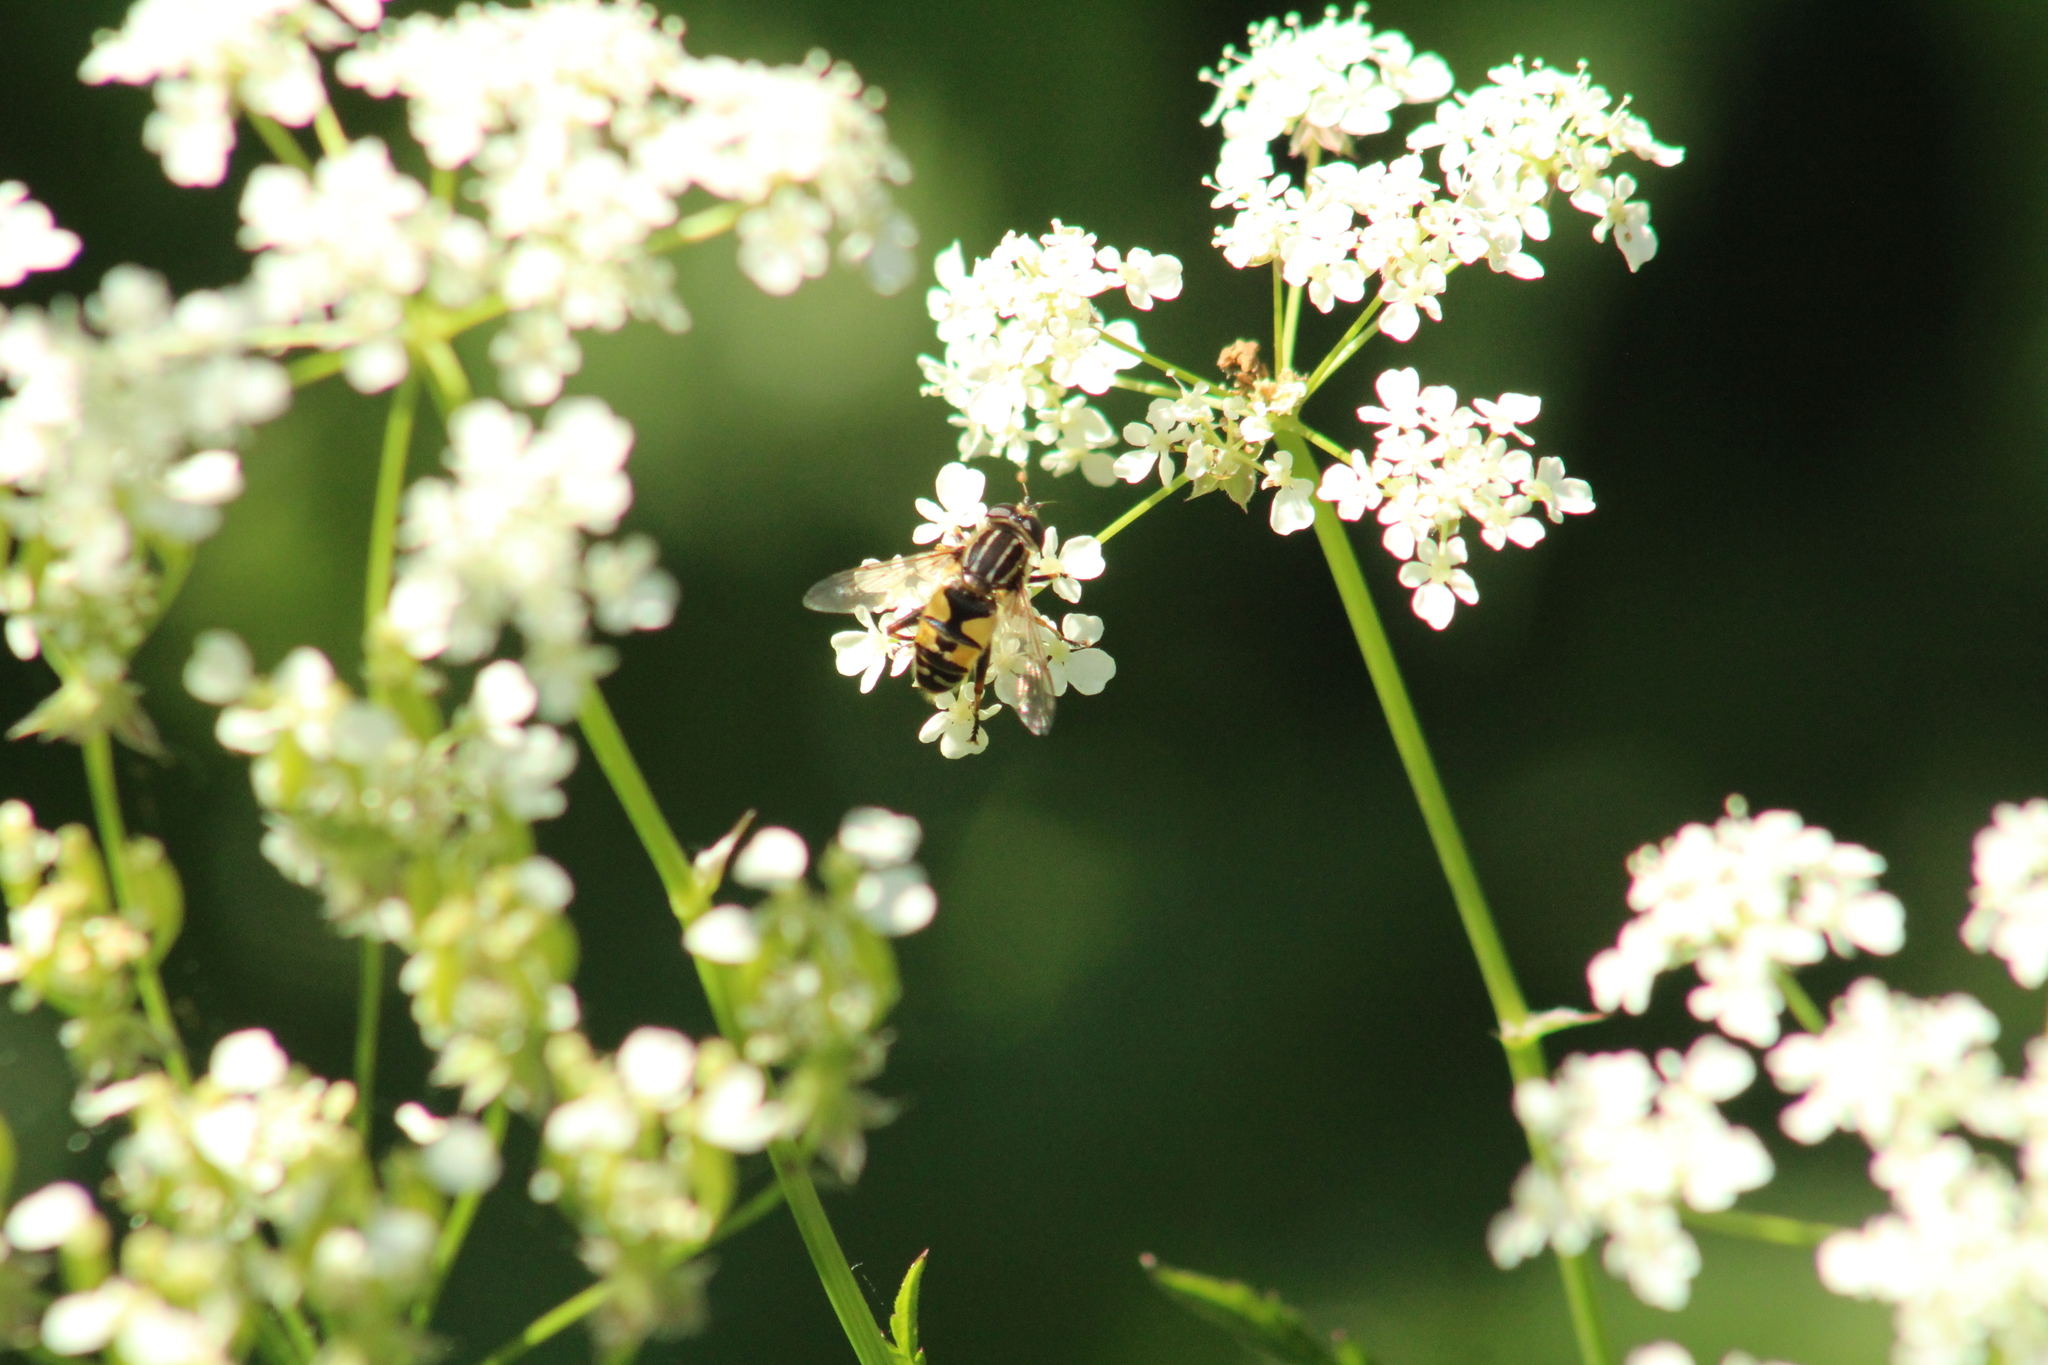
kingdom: Animalia
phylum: Arthropoda
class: Insecta
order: Diptera
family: Syrphidae
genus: Helophilus
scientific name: Helophilus hybridus
